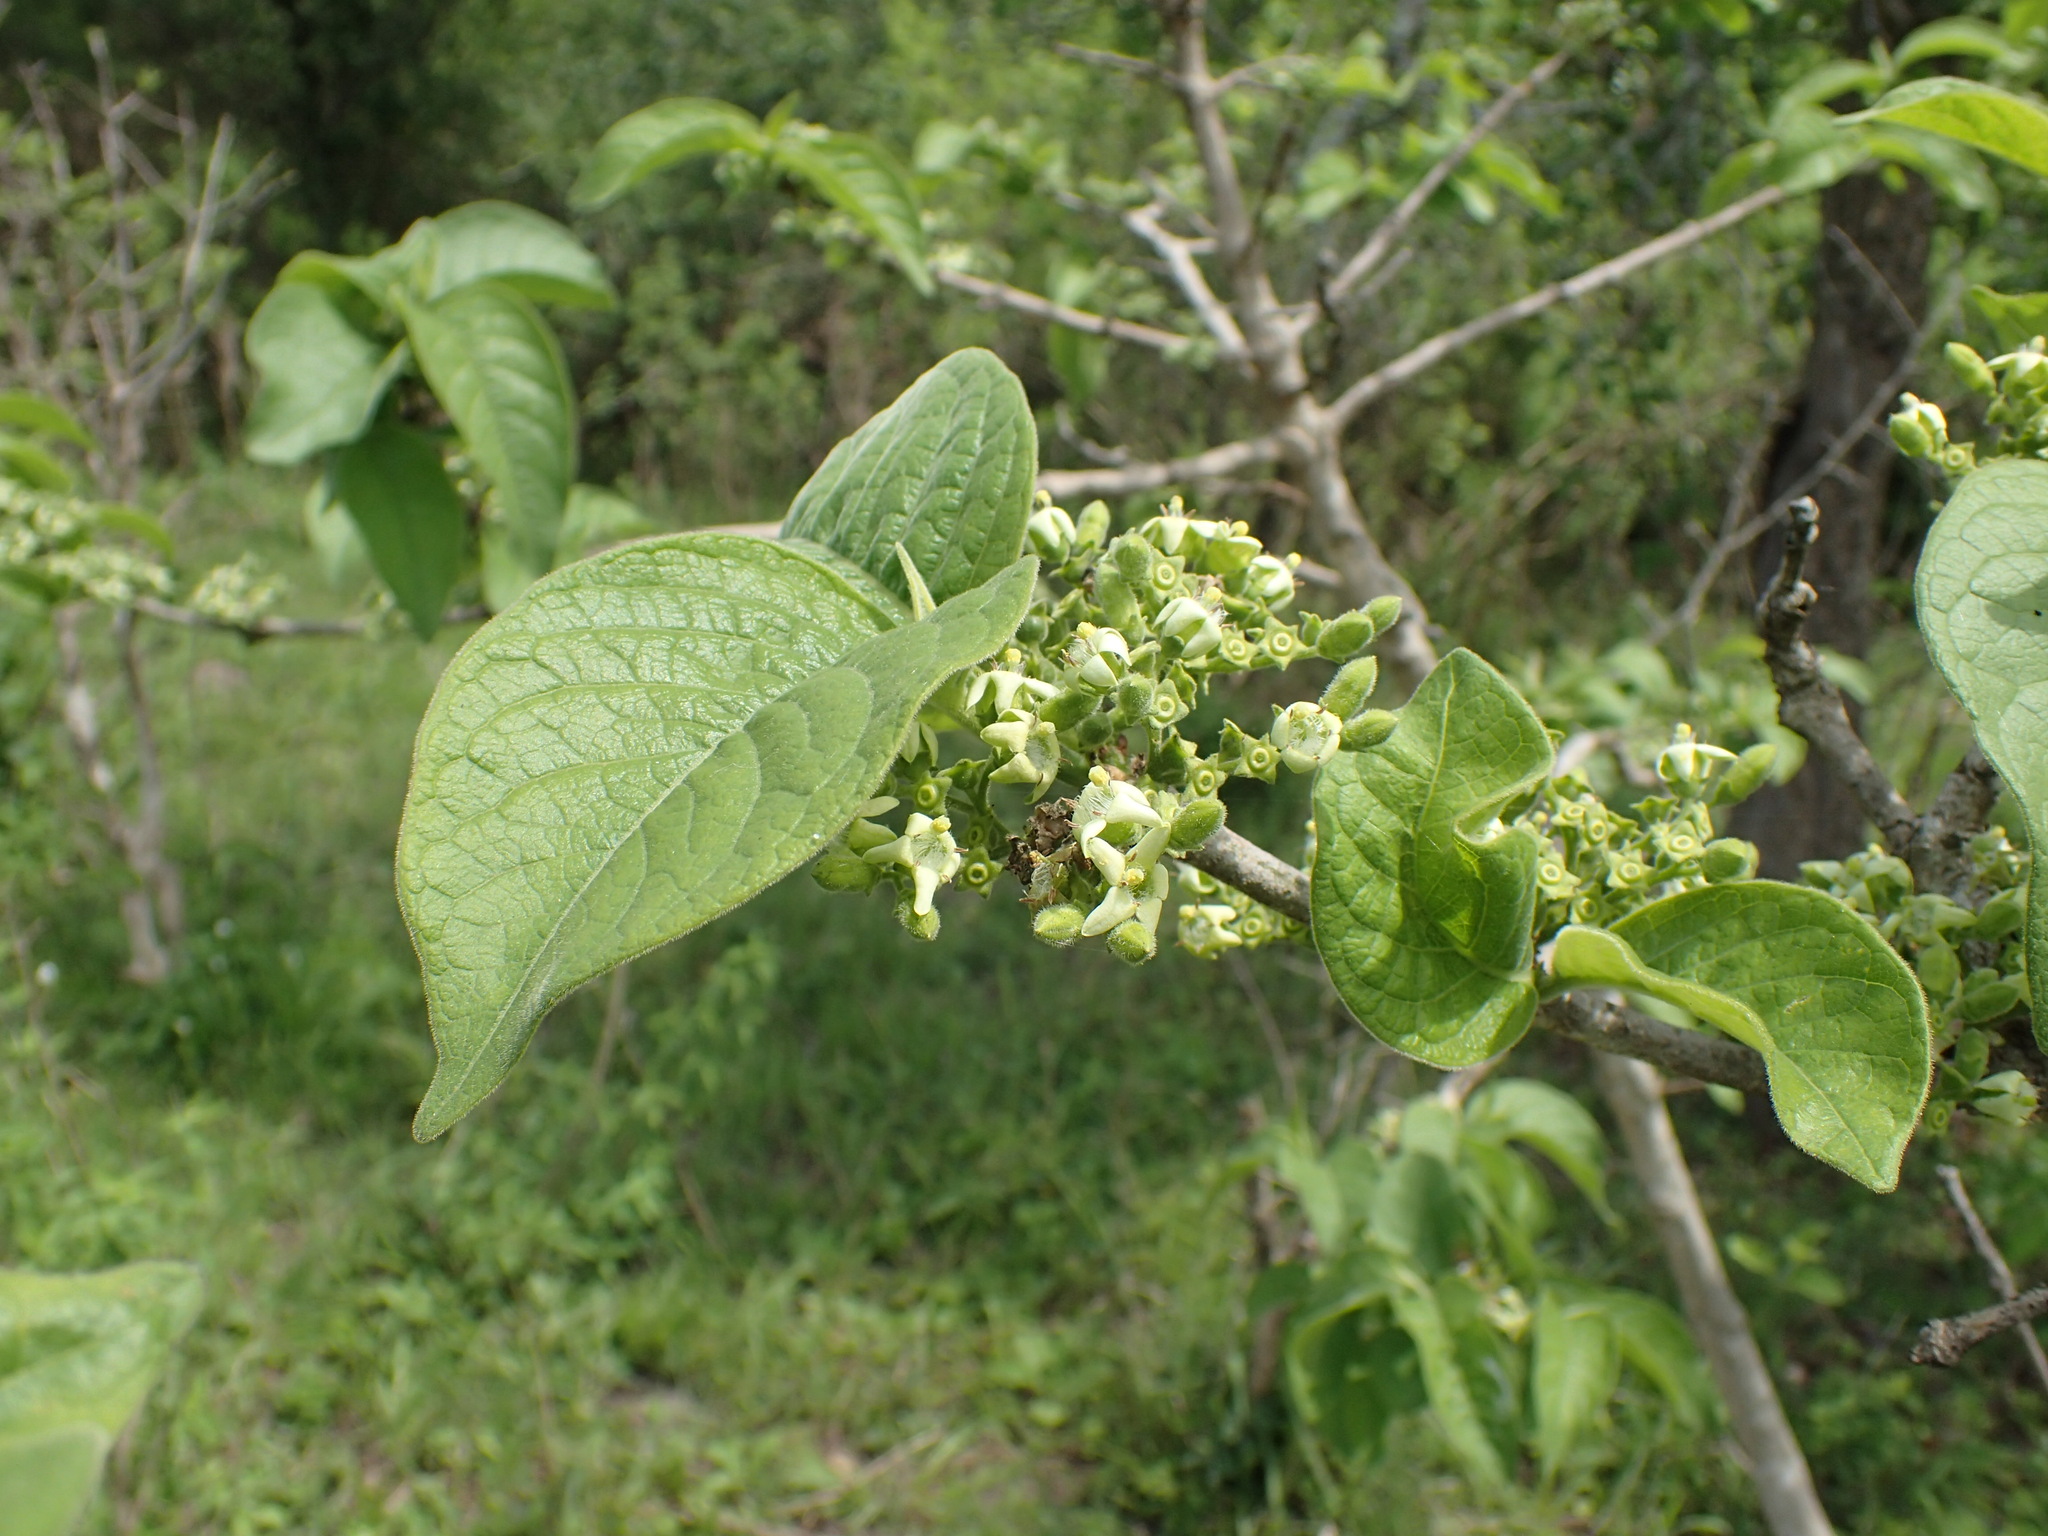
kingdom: Plantae
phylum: Tracheophyta
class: Magnoliopsida
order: Gentianales
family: Rubiaceae
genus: Vangueria
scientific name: Vangueria infausta
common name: Medlar
